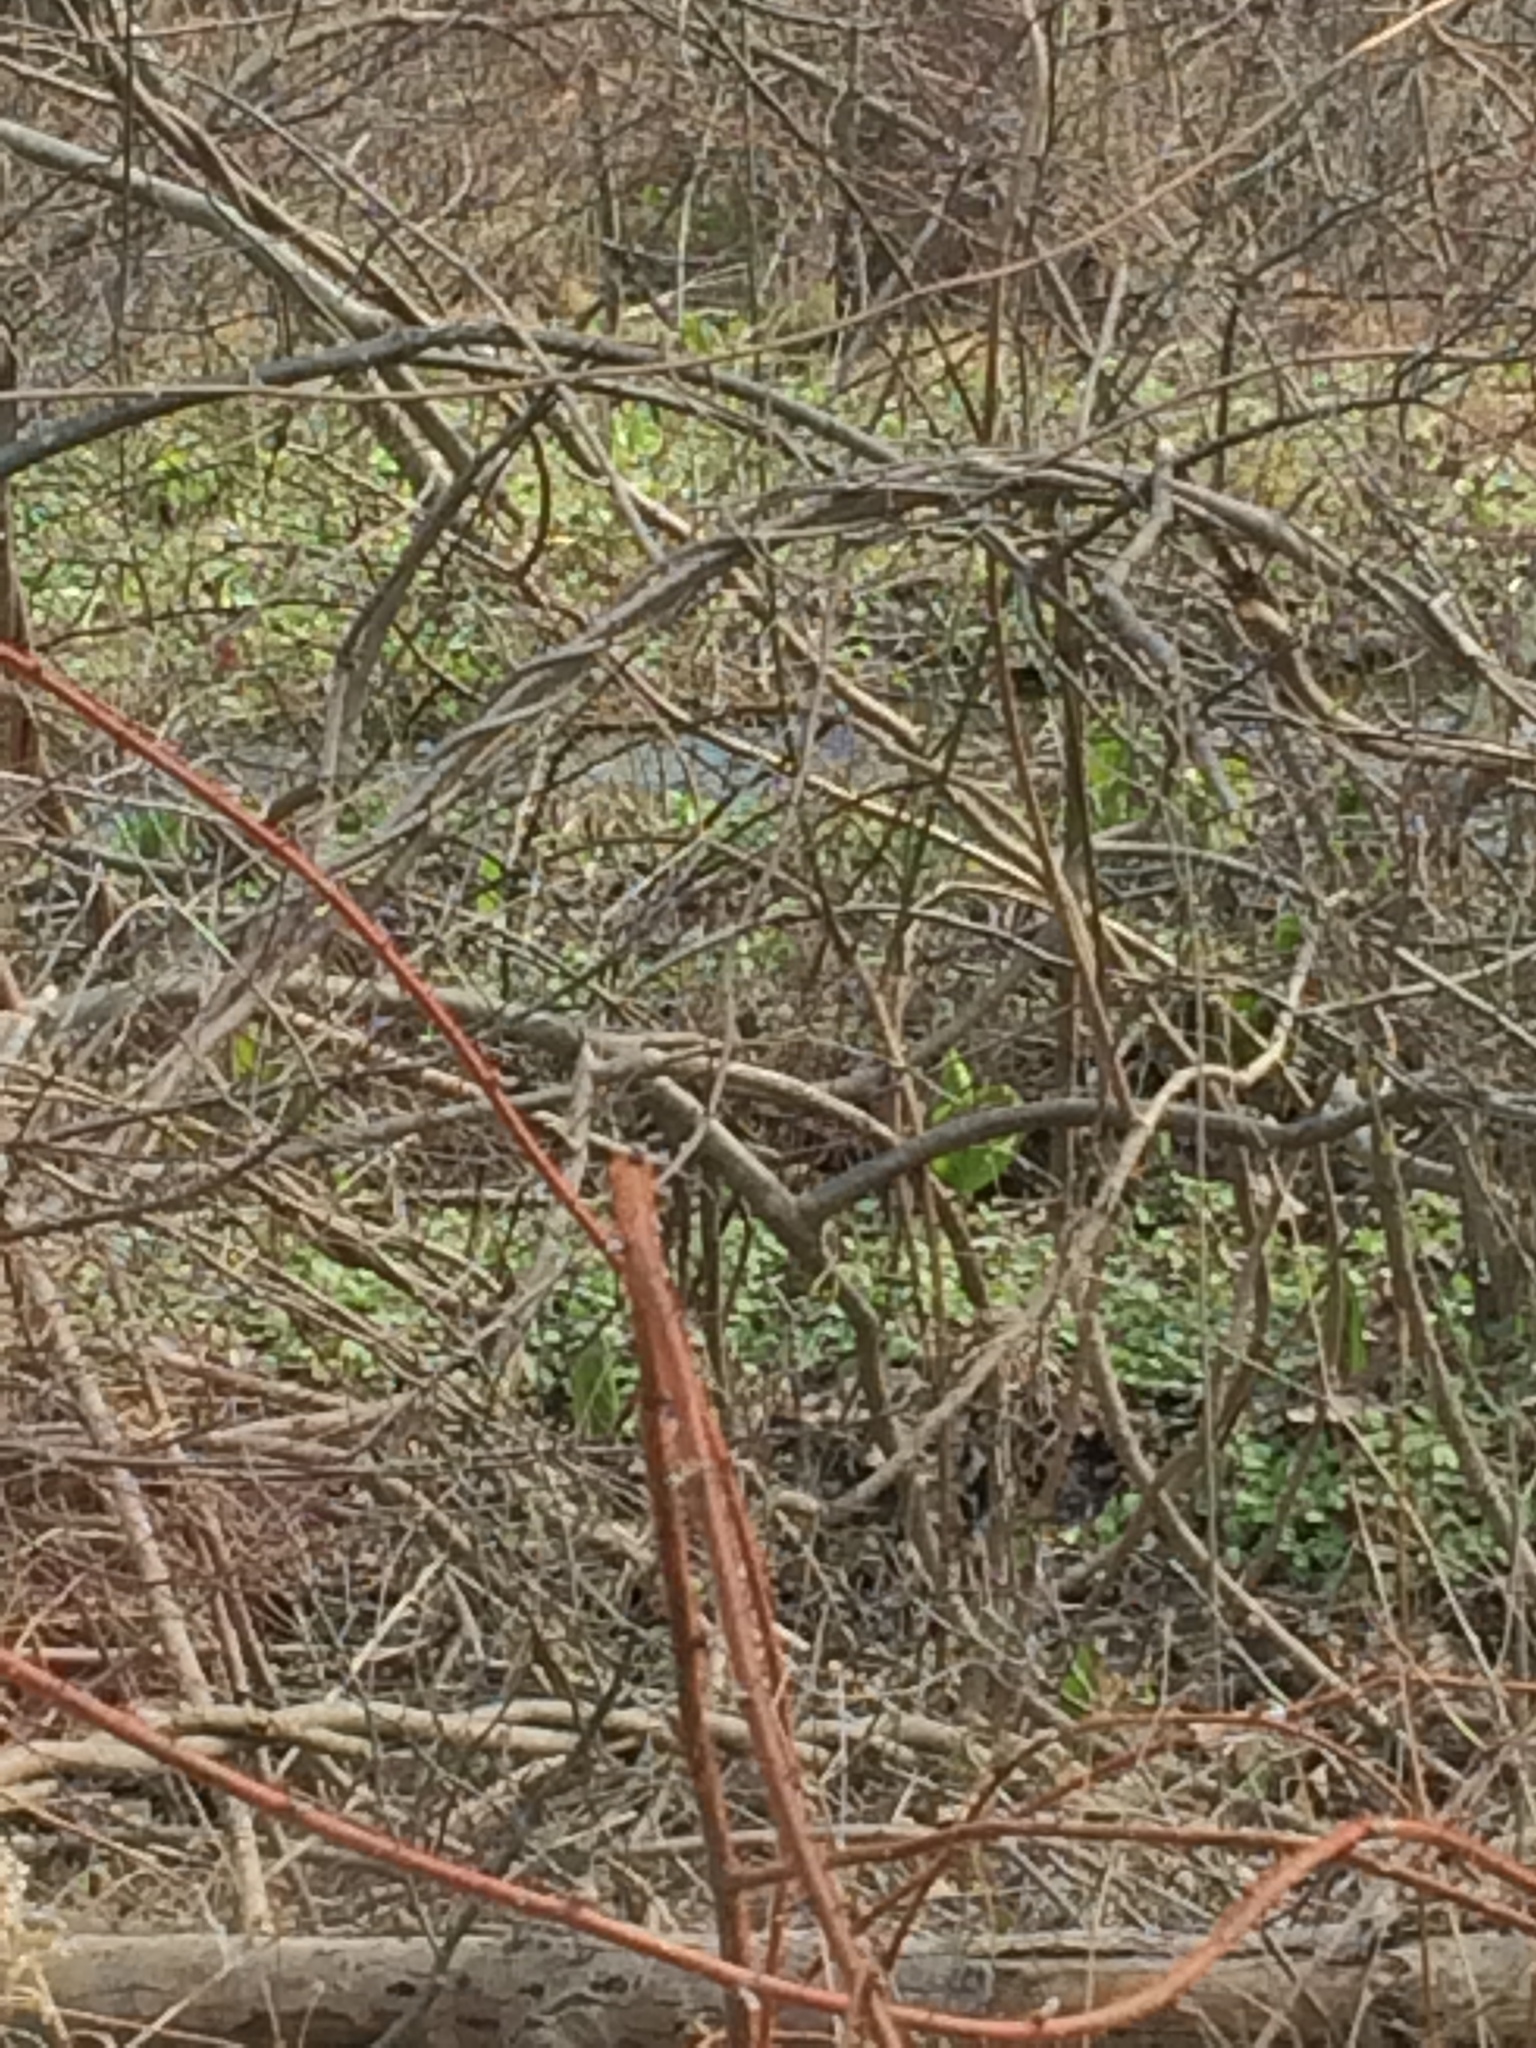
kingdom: Plantae
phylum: Tracheophyta
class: Liliopsida
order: Alismatales
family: Araceae
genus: Symplocarpus
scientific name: Symplocarpus foetidus
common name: Eastern skunk cabbage
